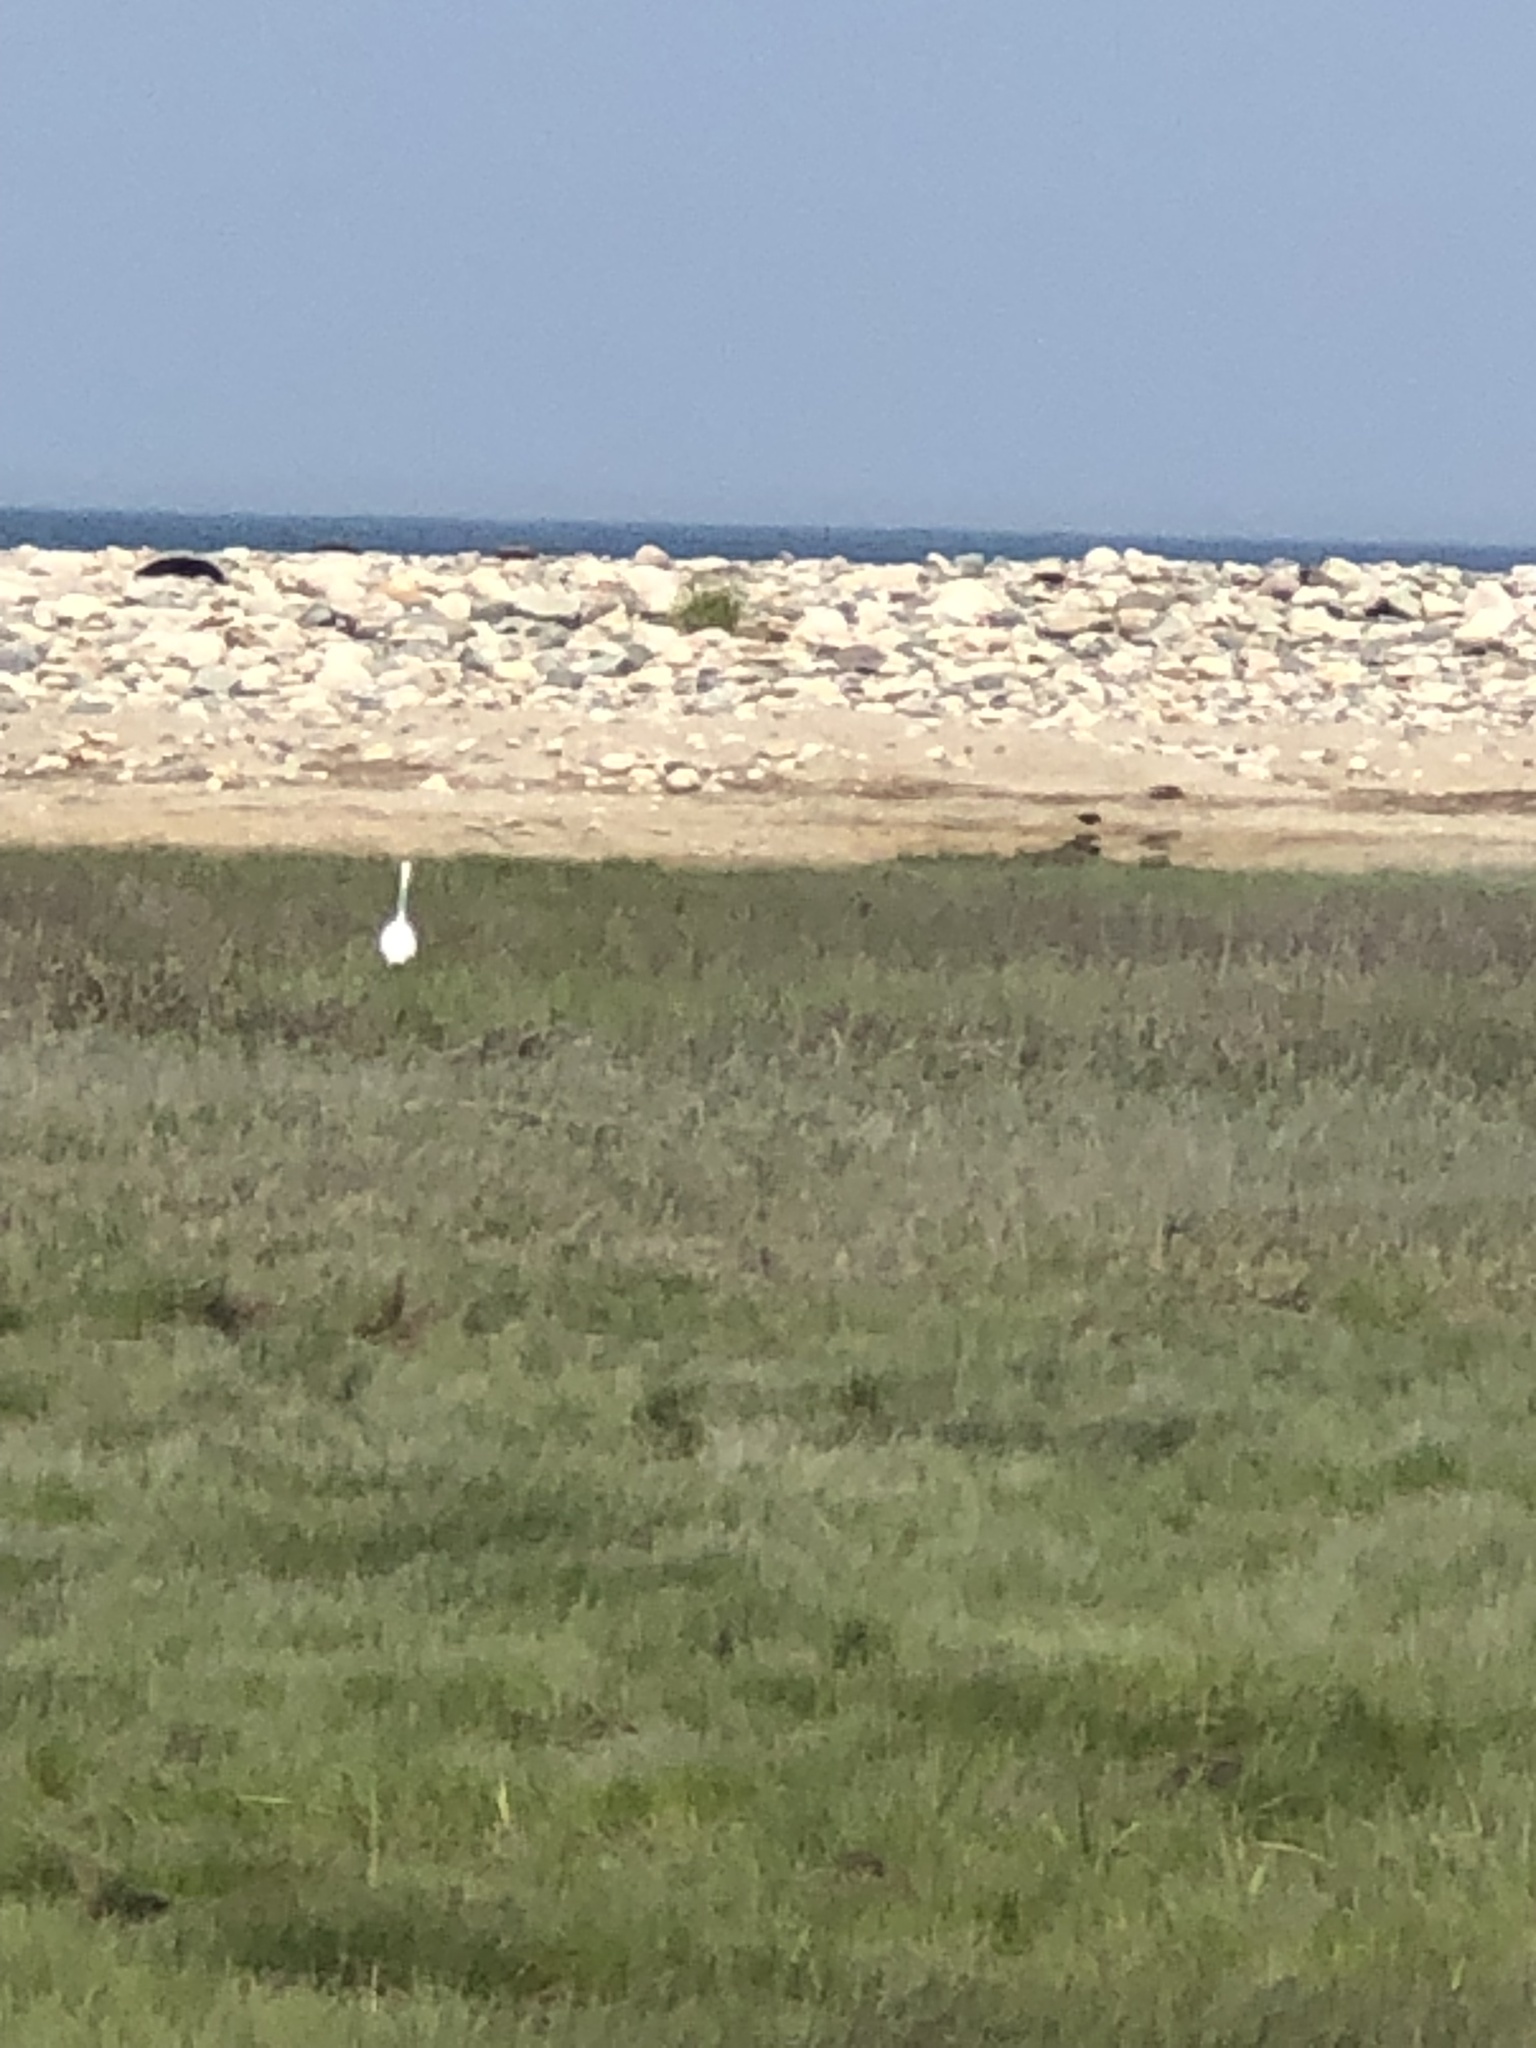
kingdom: Animalia
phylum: Chordata
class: Aves
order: Pelecaniformes
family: Ardeidae
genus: Ardea
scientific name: Ardea alba
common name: Great egret
